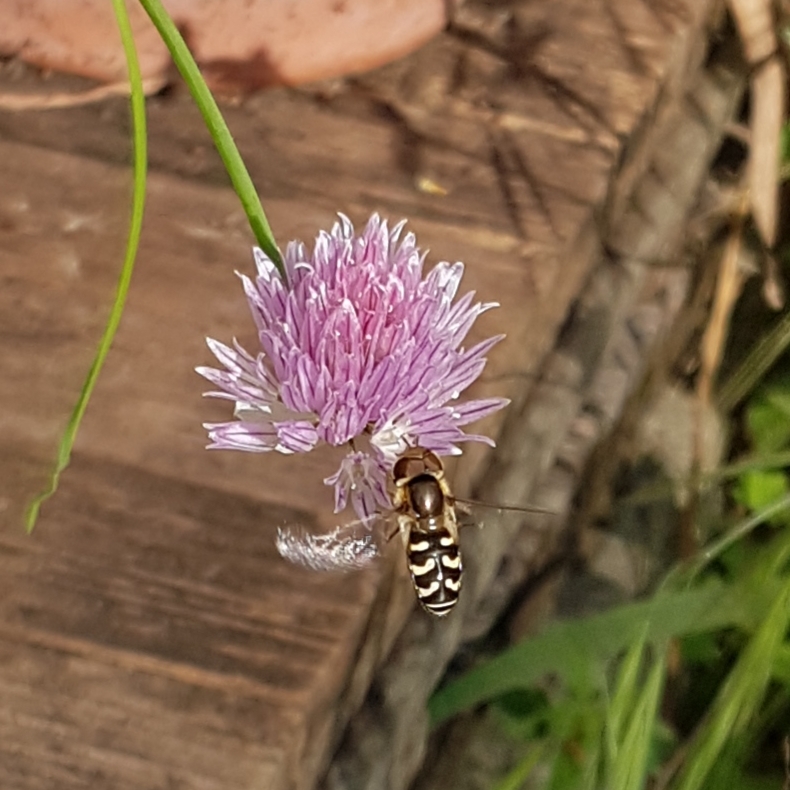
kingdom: Animalia
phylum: Arthropoda
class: Insecta
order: Diptera
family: Syrphidae
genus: Scaeva
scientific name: Scaeva pyrastri
